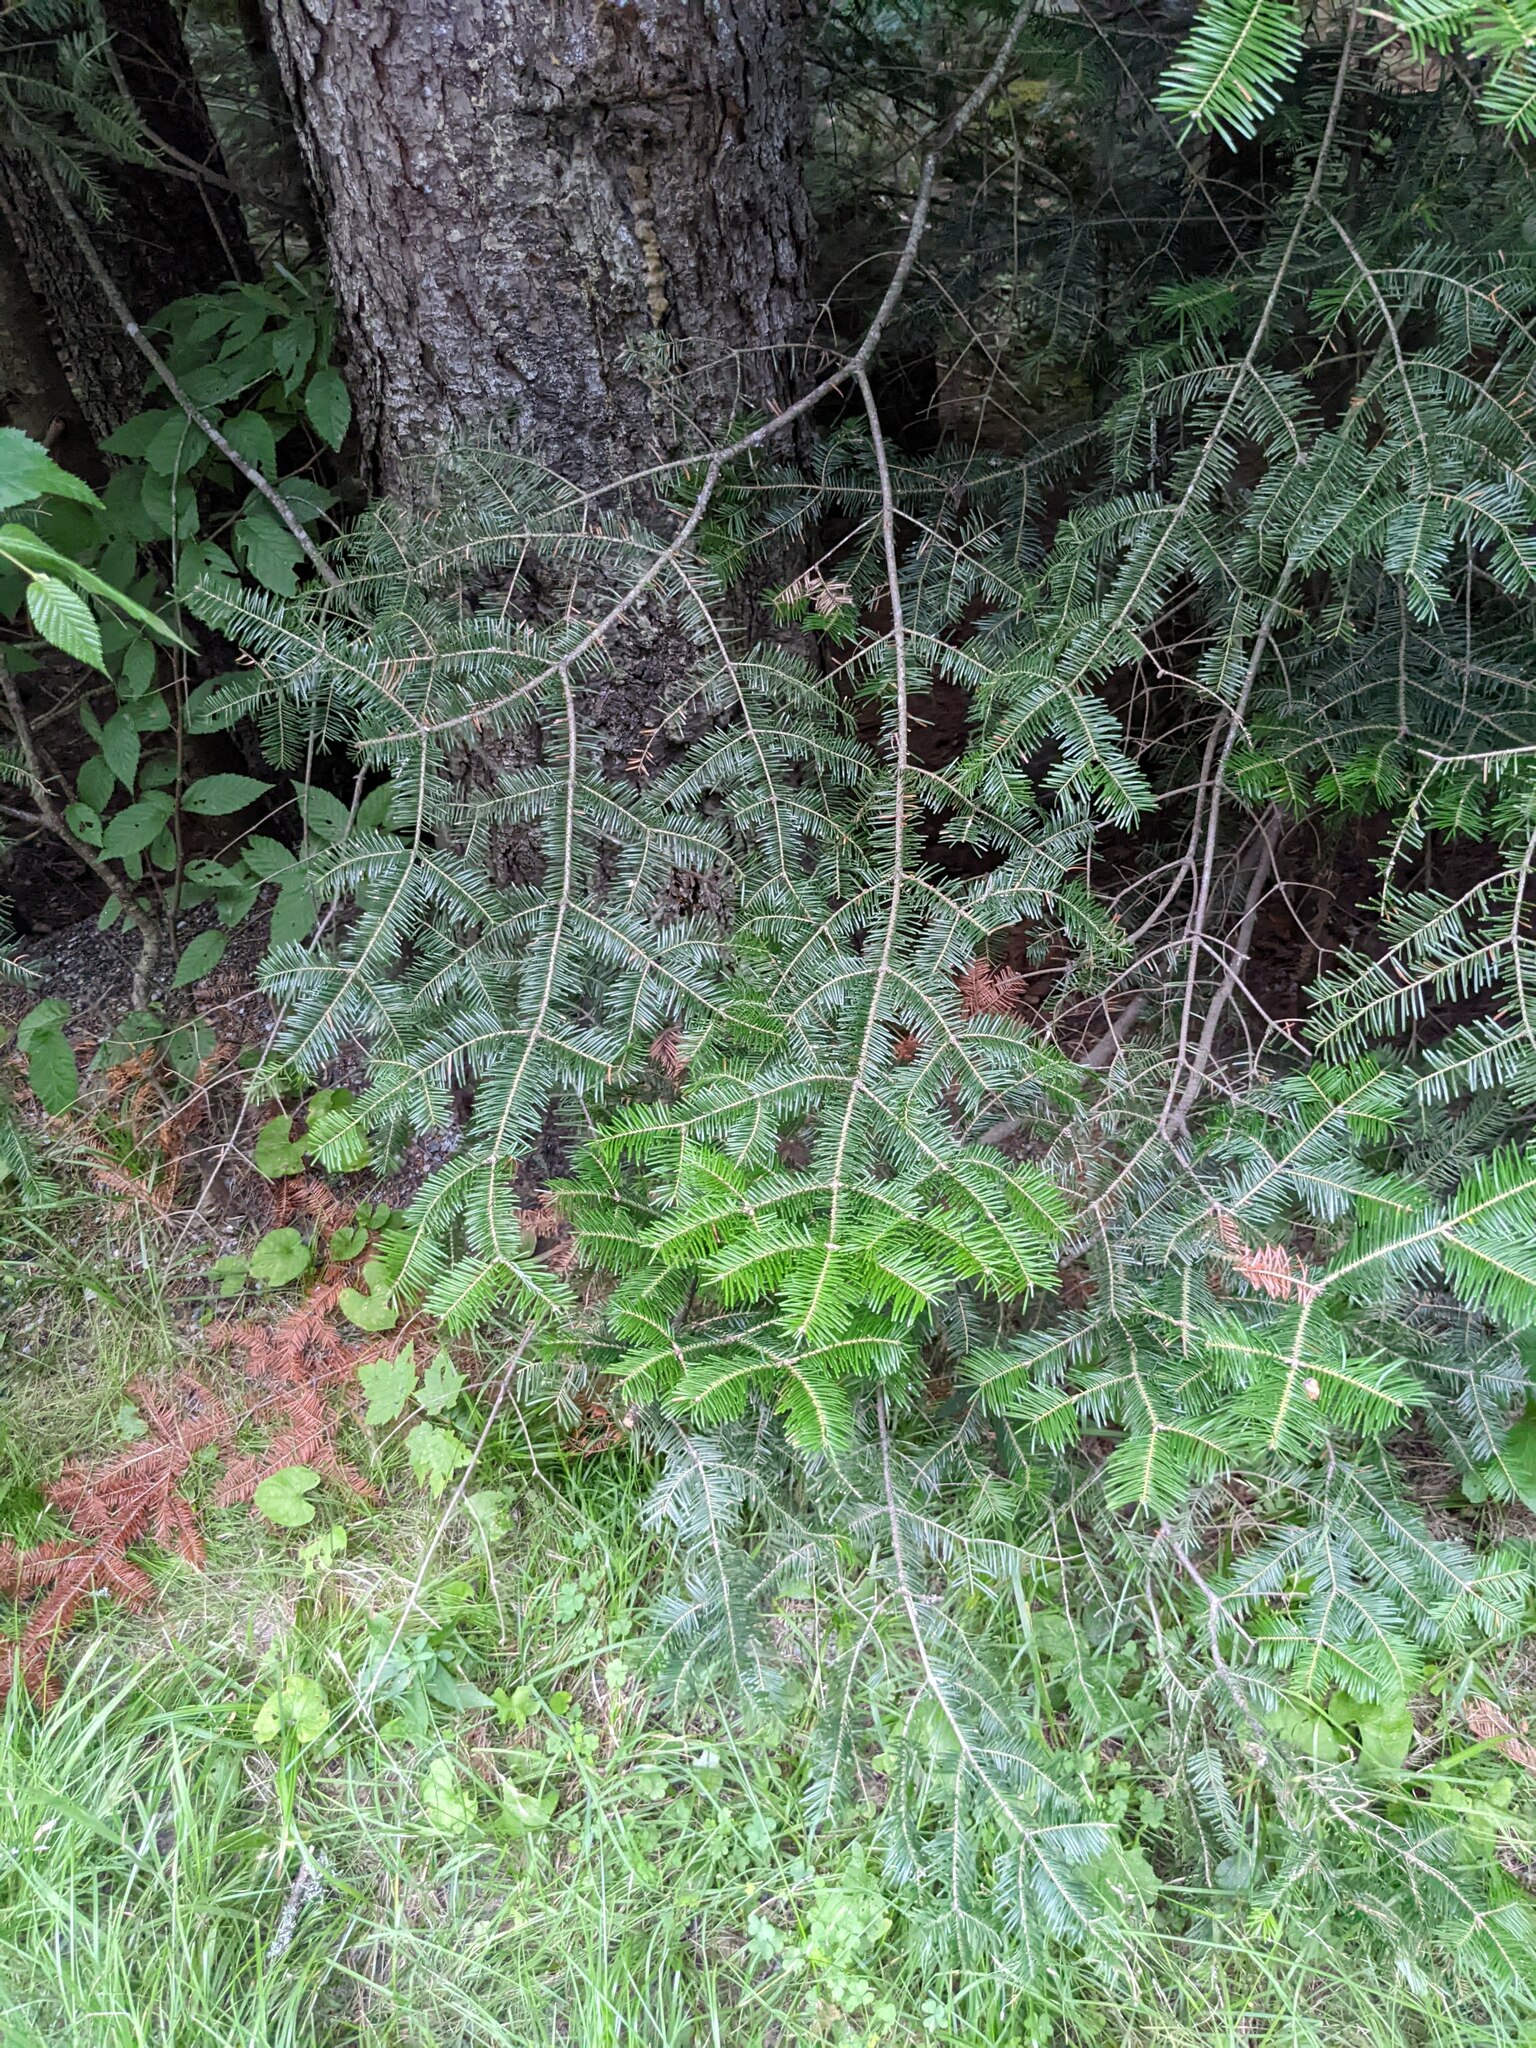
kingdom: Plantae
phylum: Tracheophyta
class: Pinopsida
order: Pinales
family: Pinaceae
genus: Abies
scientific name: Abies balsamea
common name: Balsam fir
